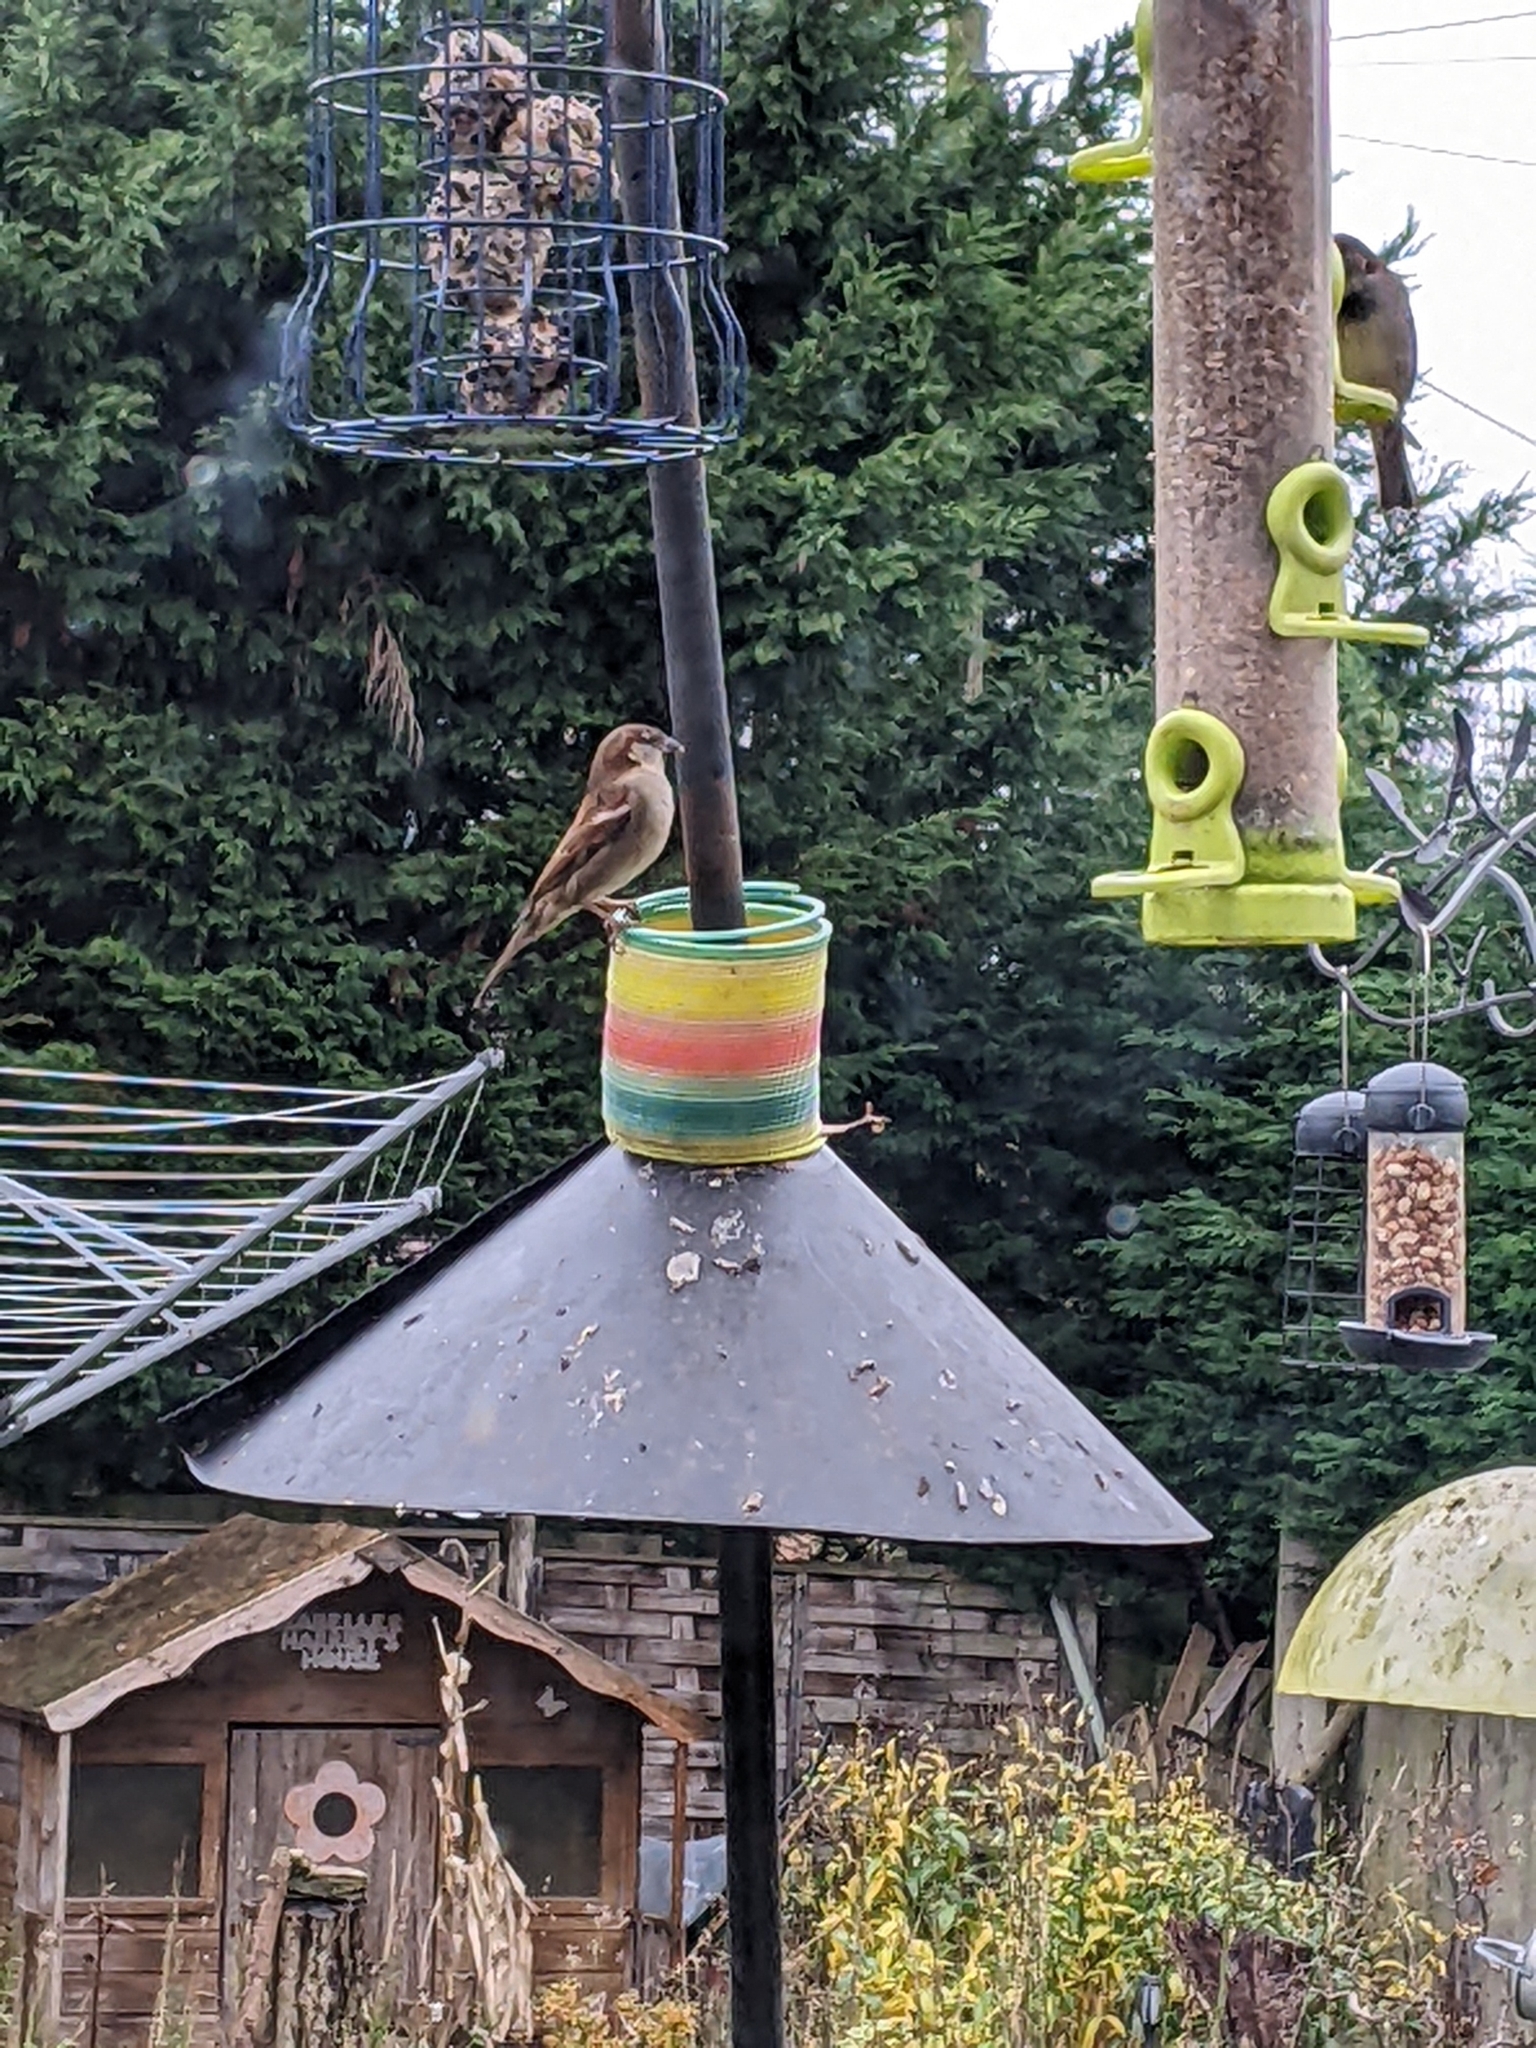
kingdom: Animalia
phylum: Chordata
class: Aves
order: Passeriformes
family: Passeridae
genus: Passer
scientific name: Passer domesticus
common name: House sparrow
